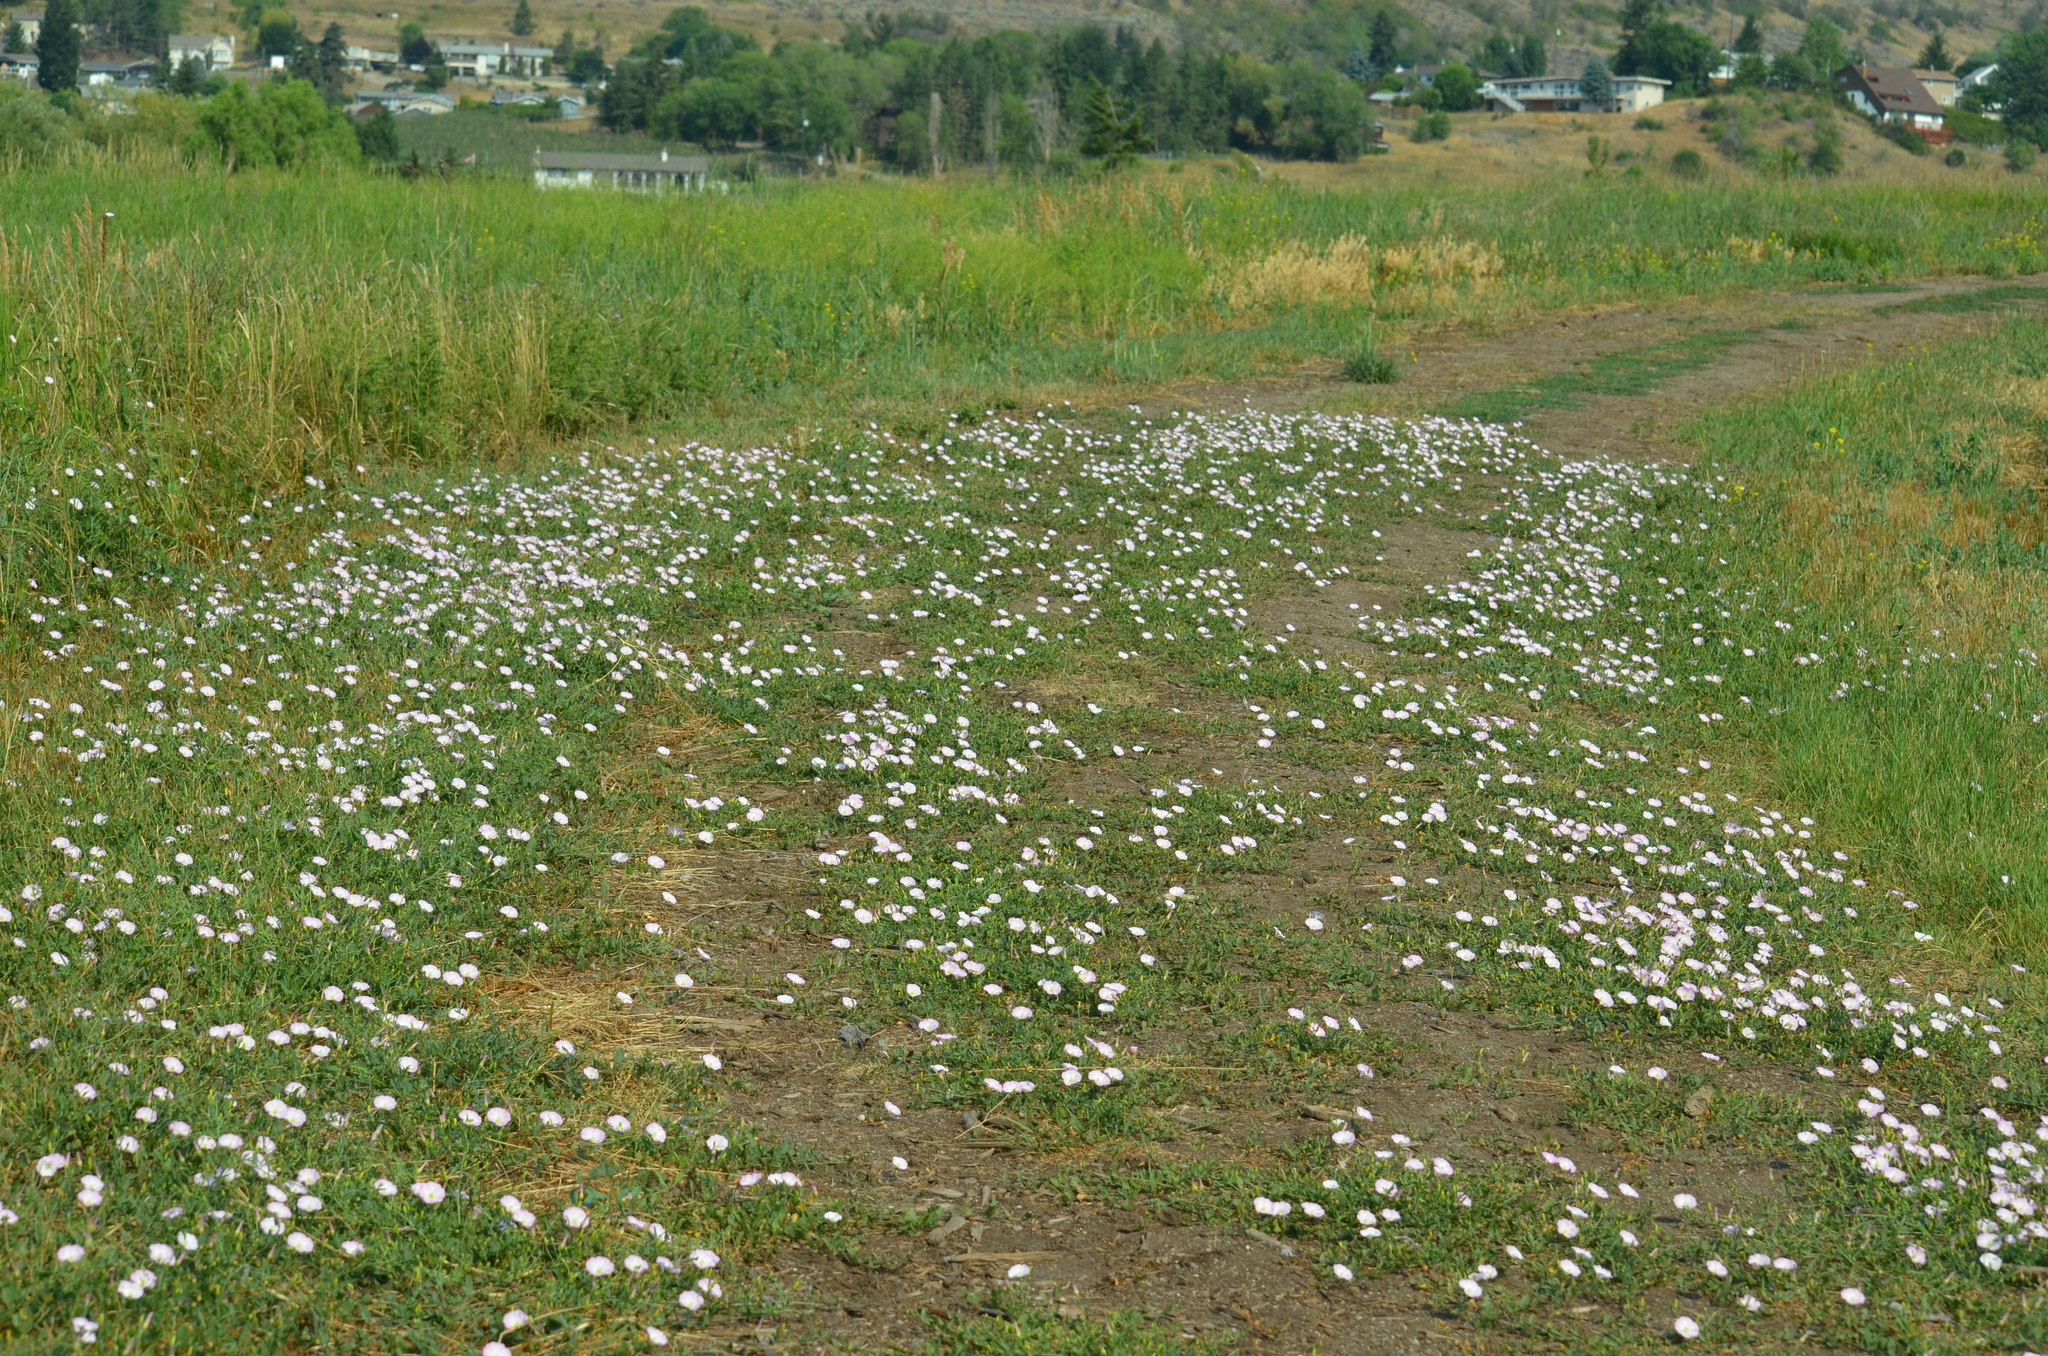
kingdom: Plantae
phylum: Tracheophyta
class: Magnoliopsida
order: Solanales
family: Convolvulaceae
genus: Convolvulus
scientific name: Convolvulus arvensis
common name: Field bindweed
